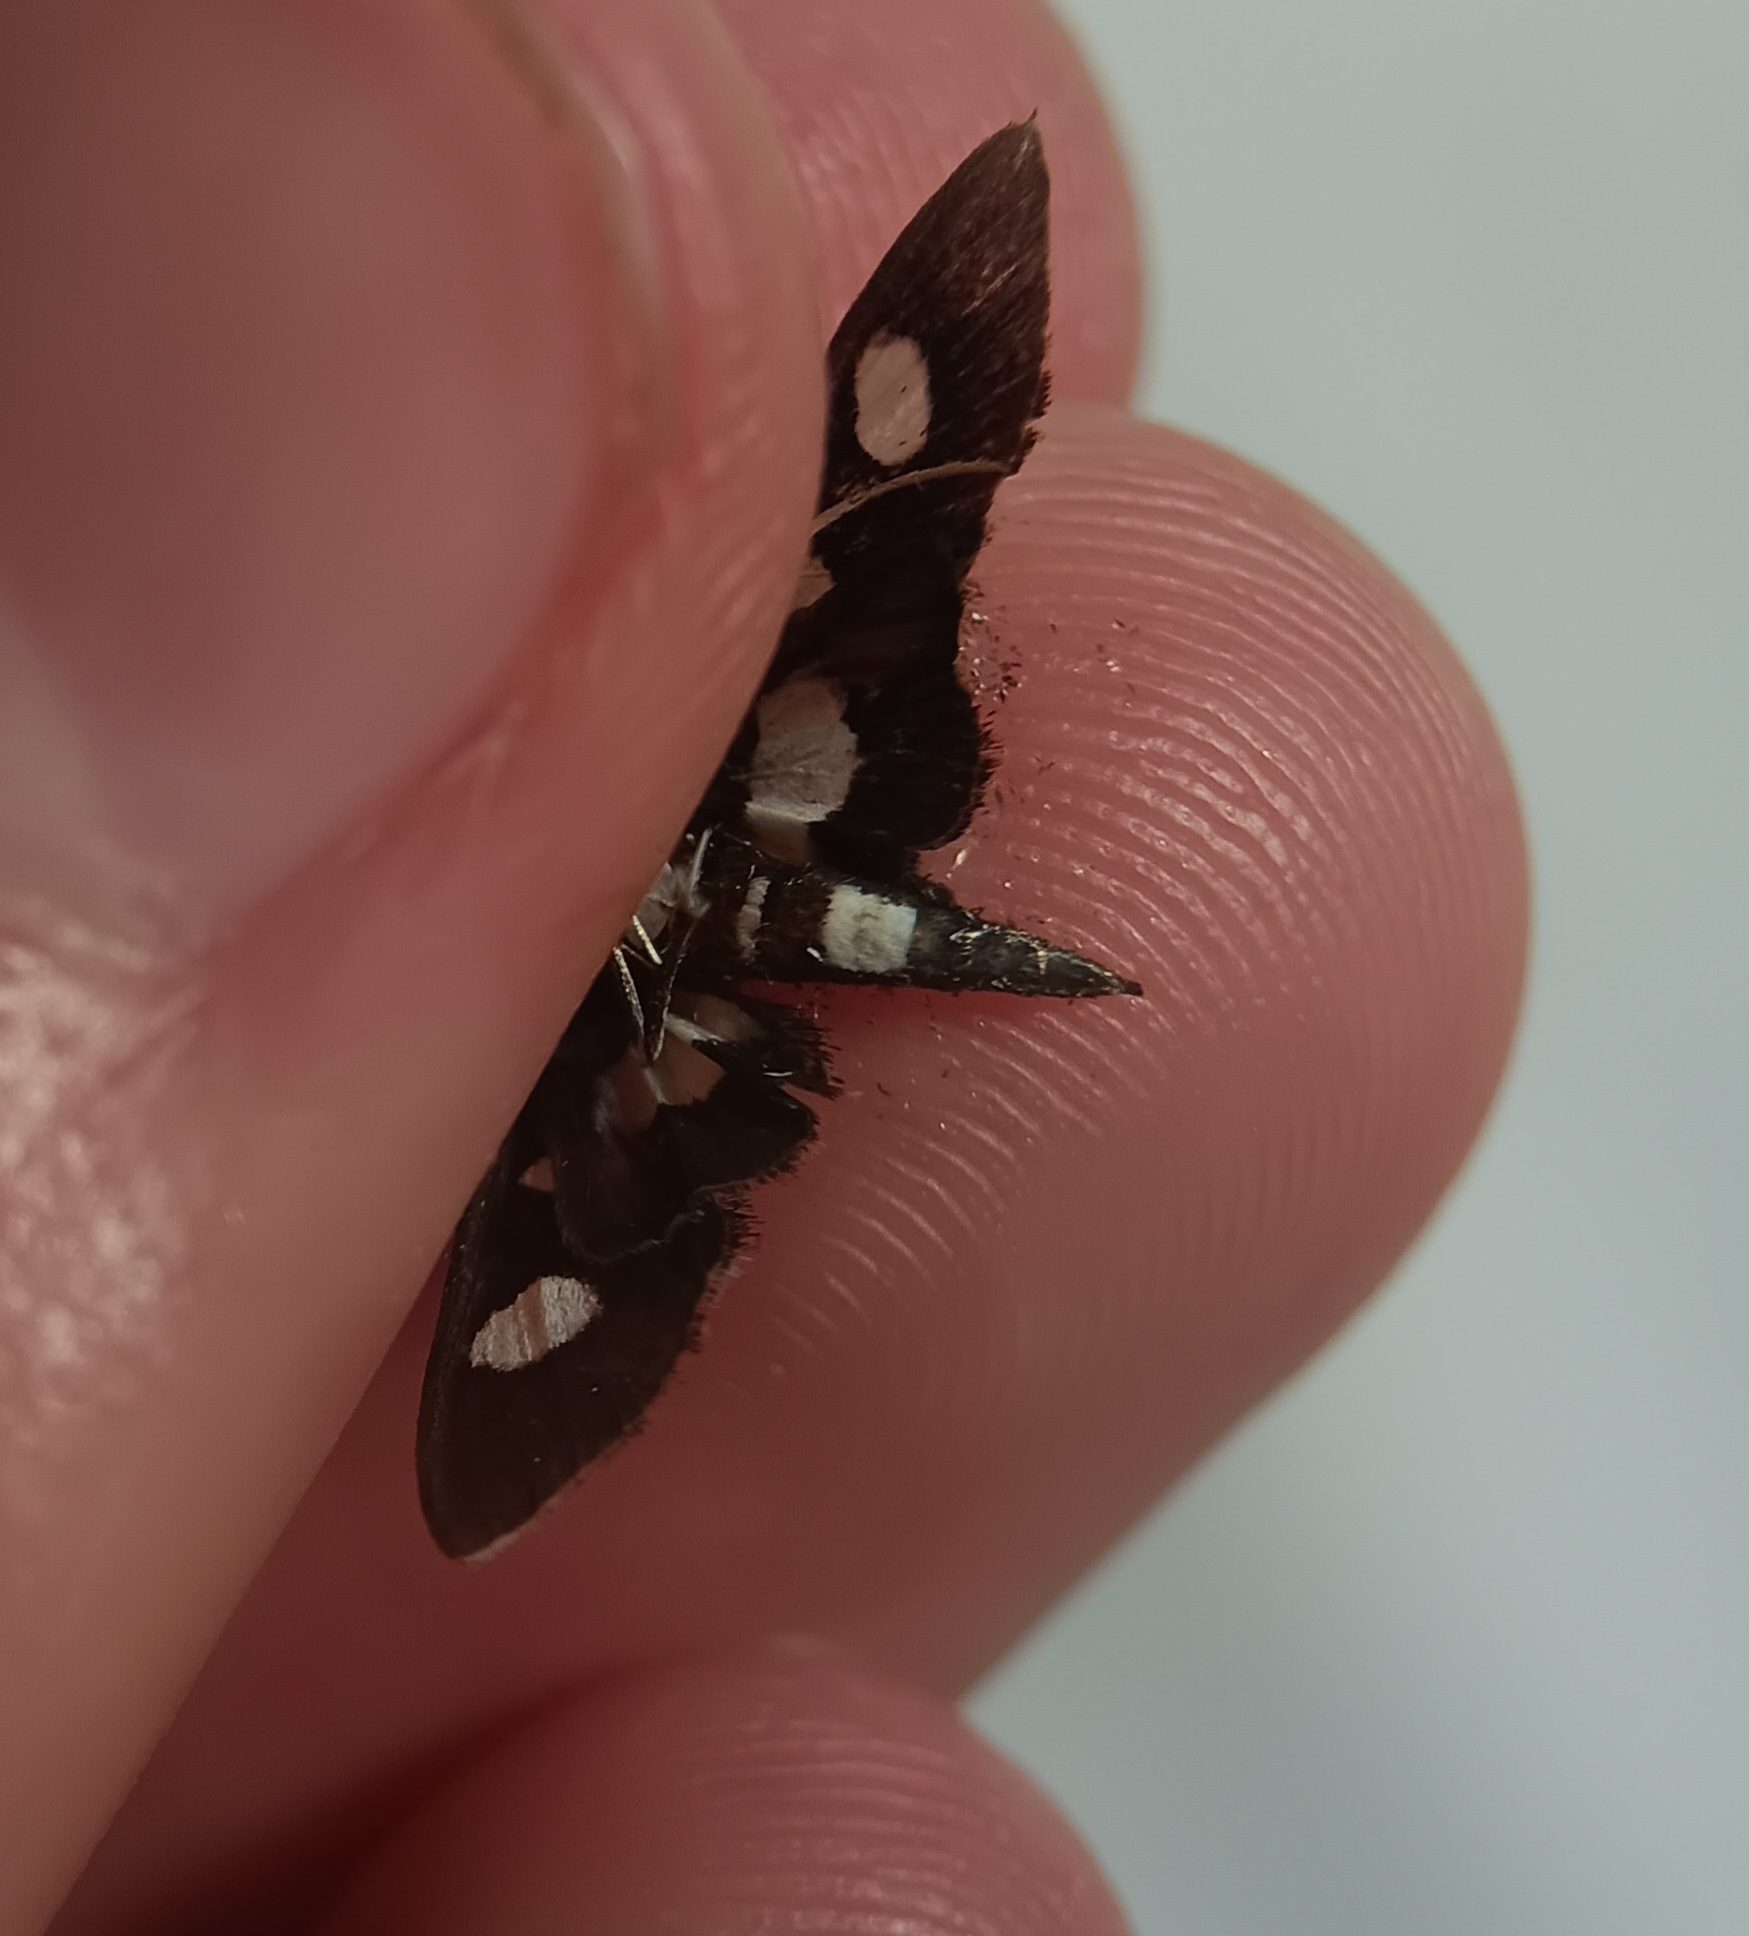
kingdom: Animalia
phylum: Arthropoda
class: Insecta
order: Lepidoptera
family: Crambidae
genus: Desmia
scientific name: Desmia funeralis
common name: Grape leaf folder moth
